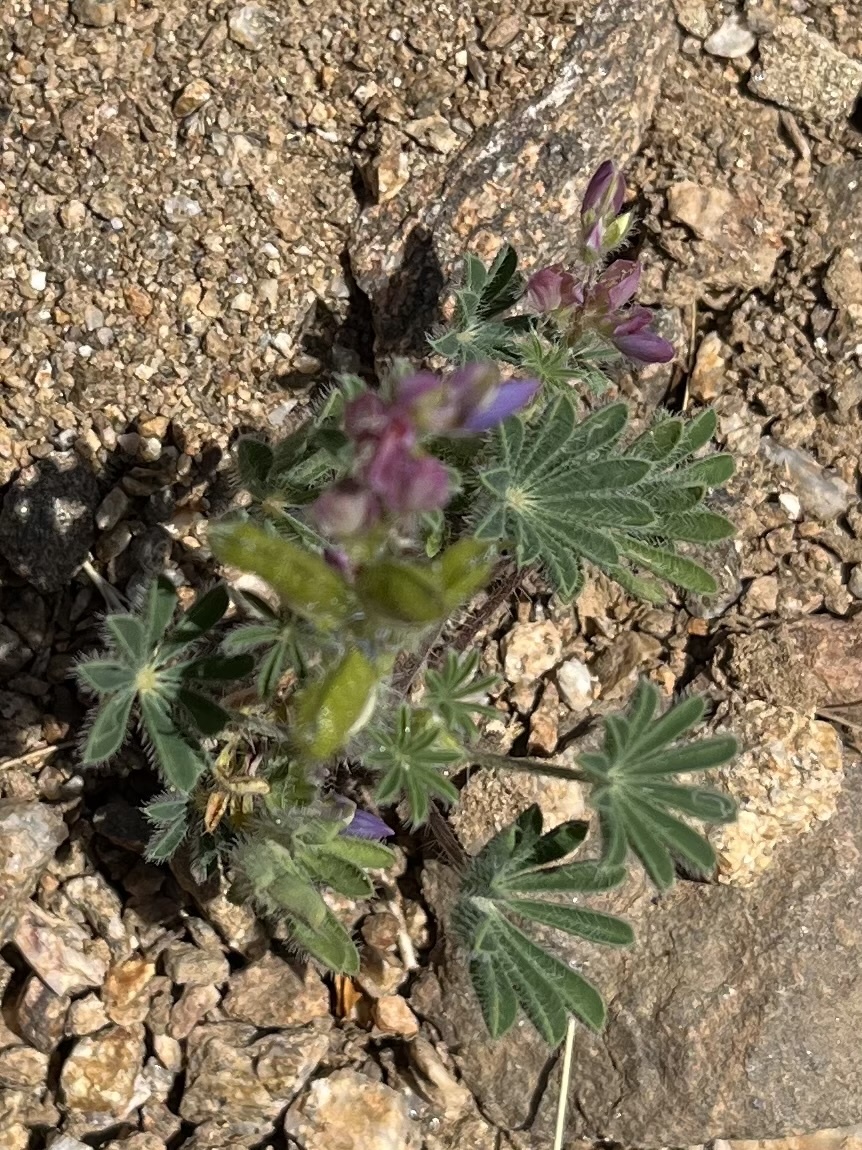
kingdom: Plantae
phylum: Tracheophyta
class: Magnoliopsida
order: Fabales
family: Fabaceae
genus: Lupinus
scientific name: Lupinus concinnus
